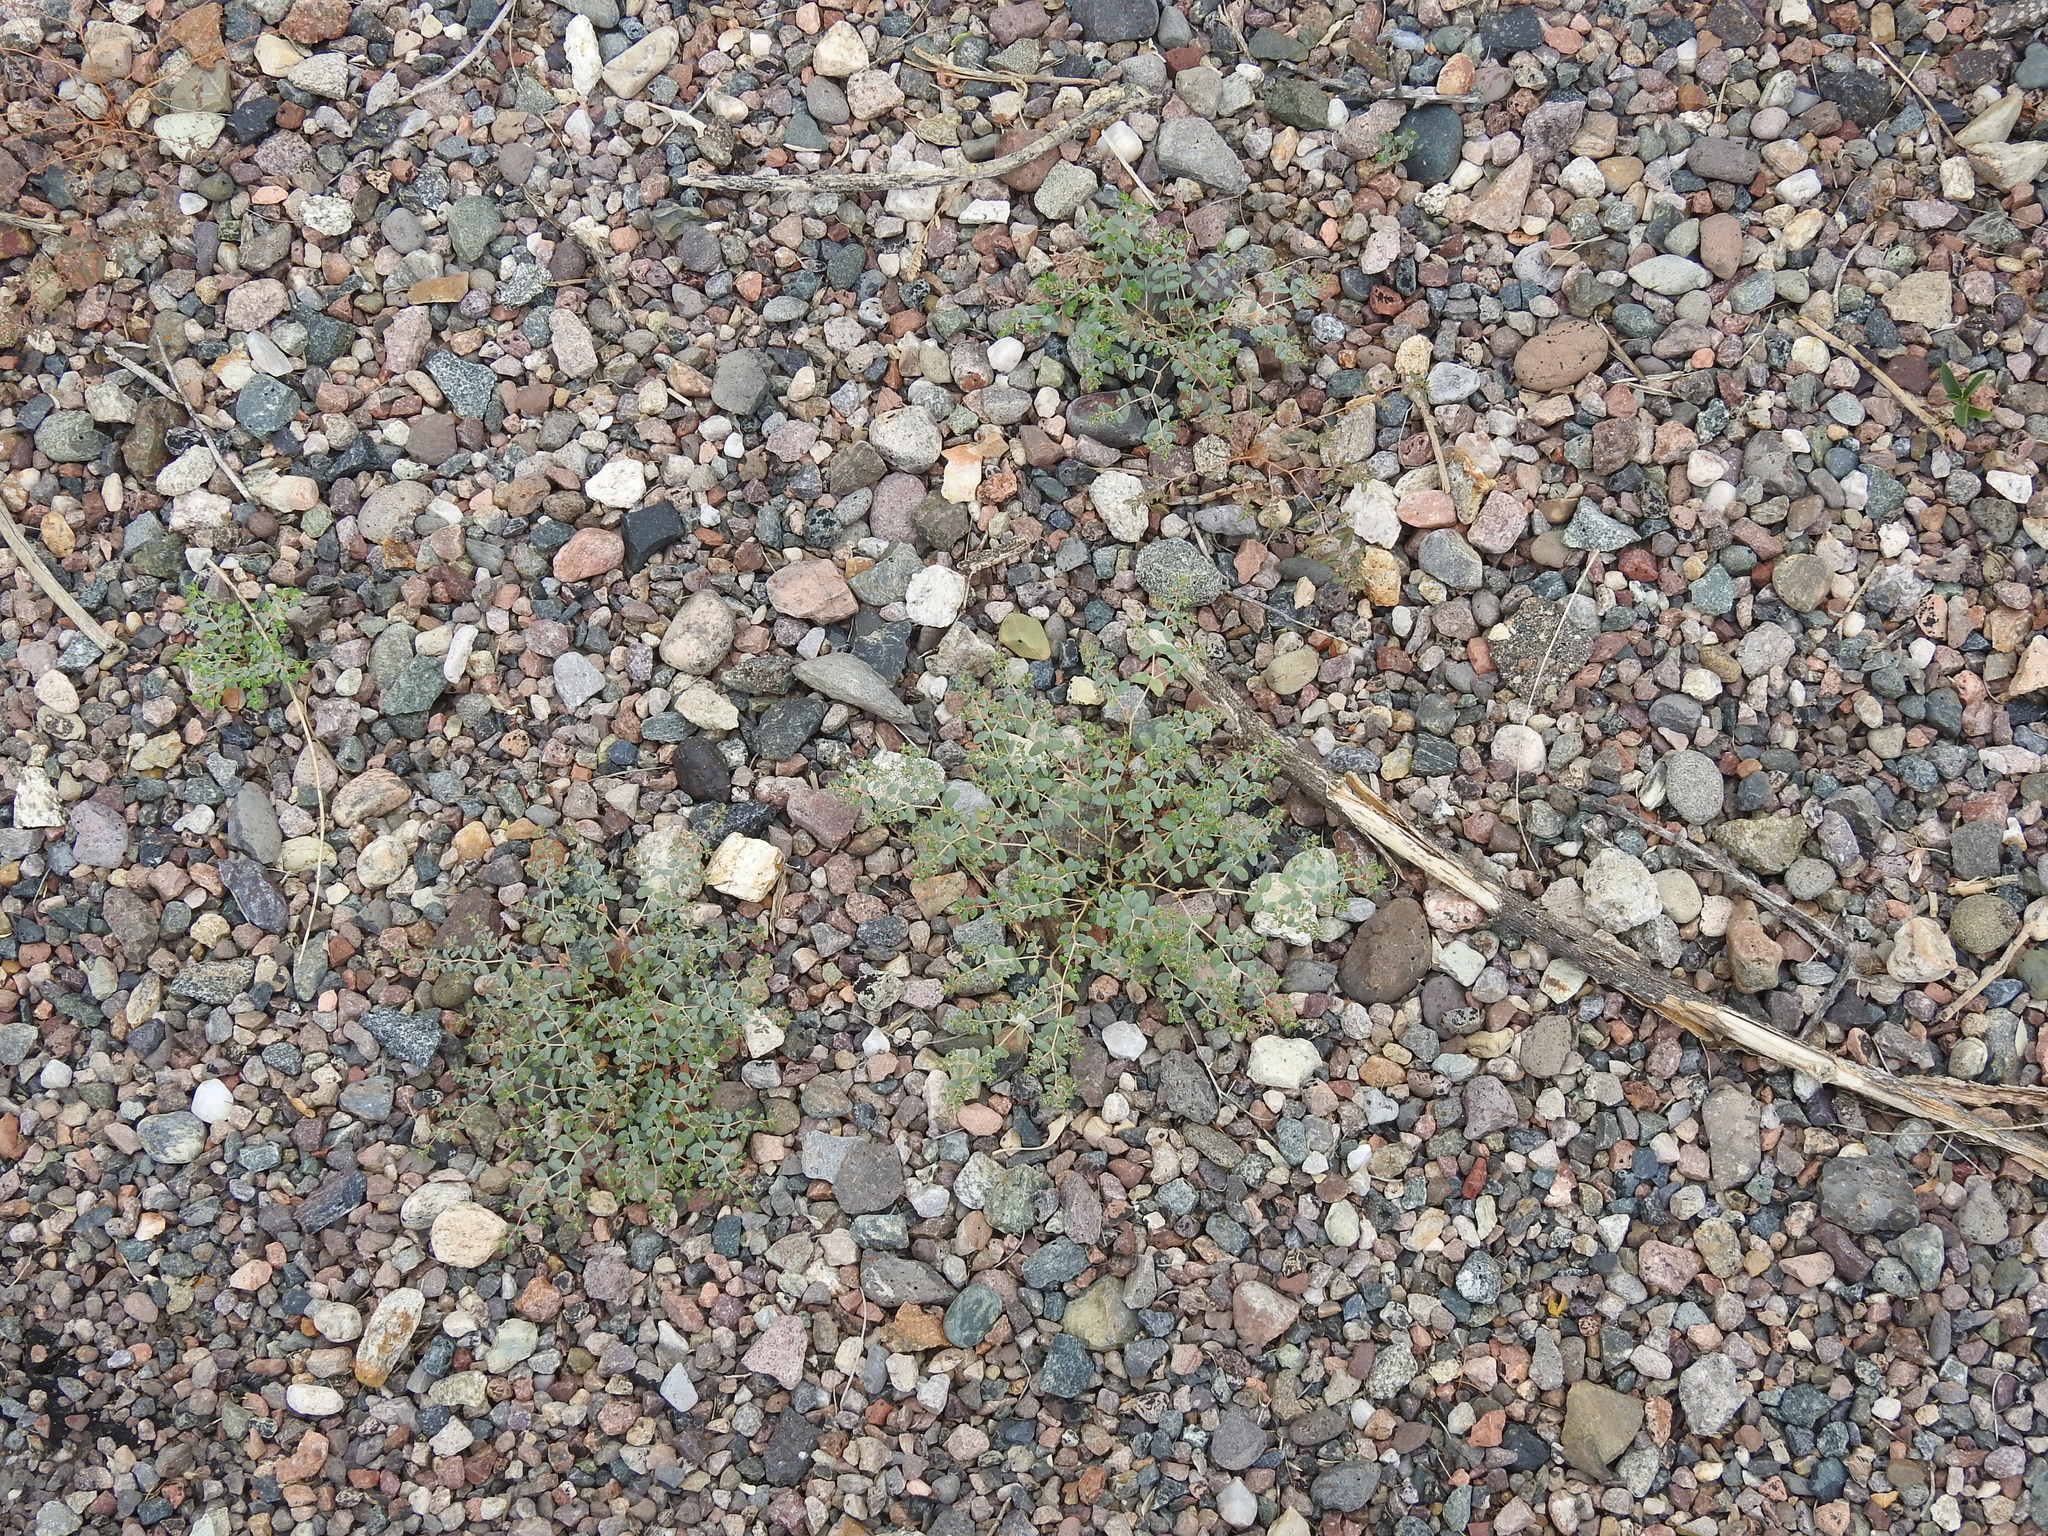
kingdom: Plantae
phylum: Tracheophyta
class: Magnoliopsida
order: Malpighiales
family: Euphorbiaceae
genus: Euphorbia
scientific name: Euphorbia polycarpa
